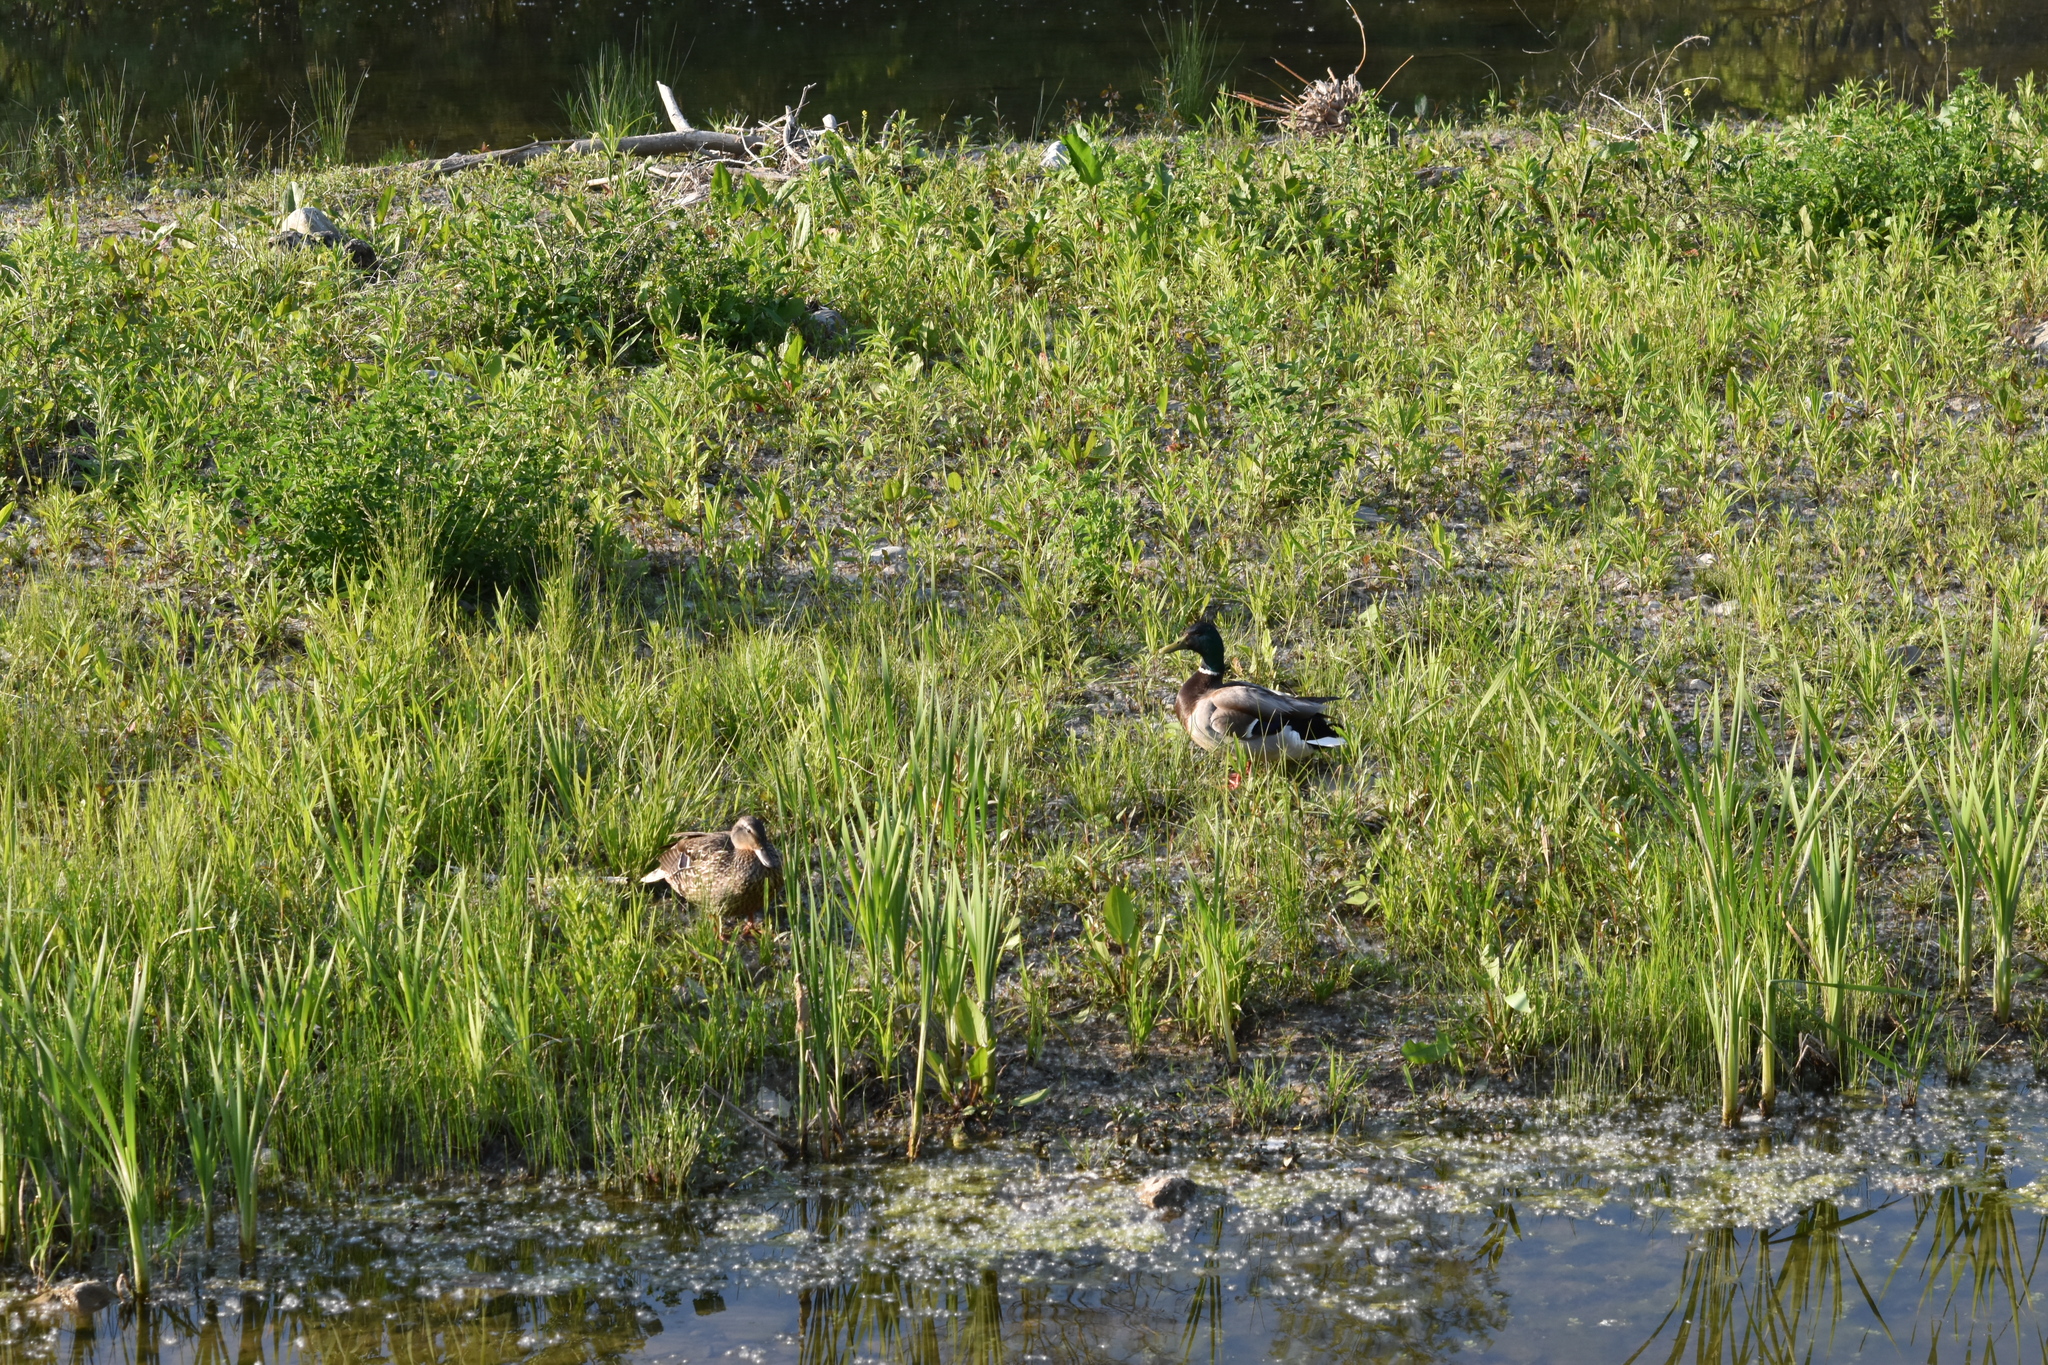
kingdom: Animalia
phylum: Chordata
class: Aves
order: Anseriformes
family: Anatidae
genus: Anas
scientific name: Anas platyrhynchos
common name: Mallard
